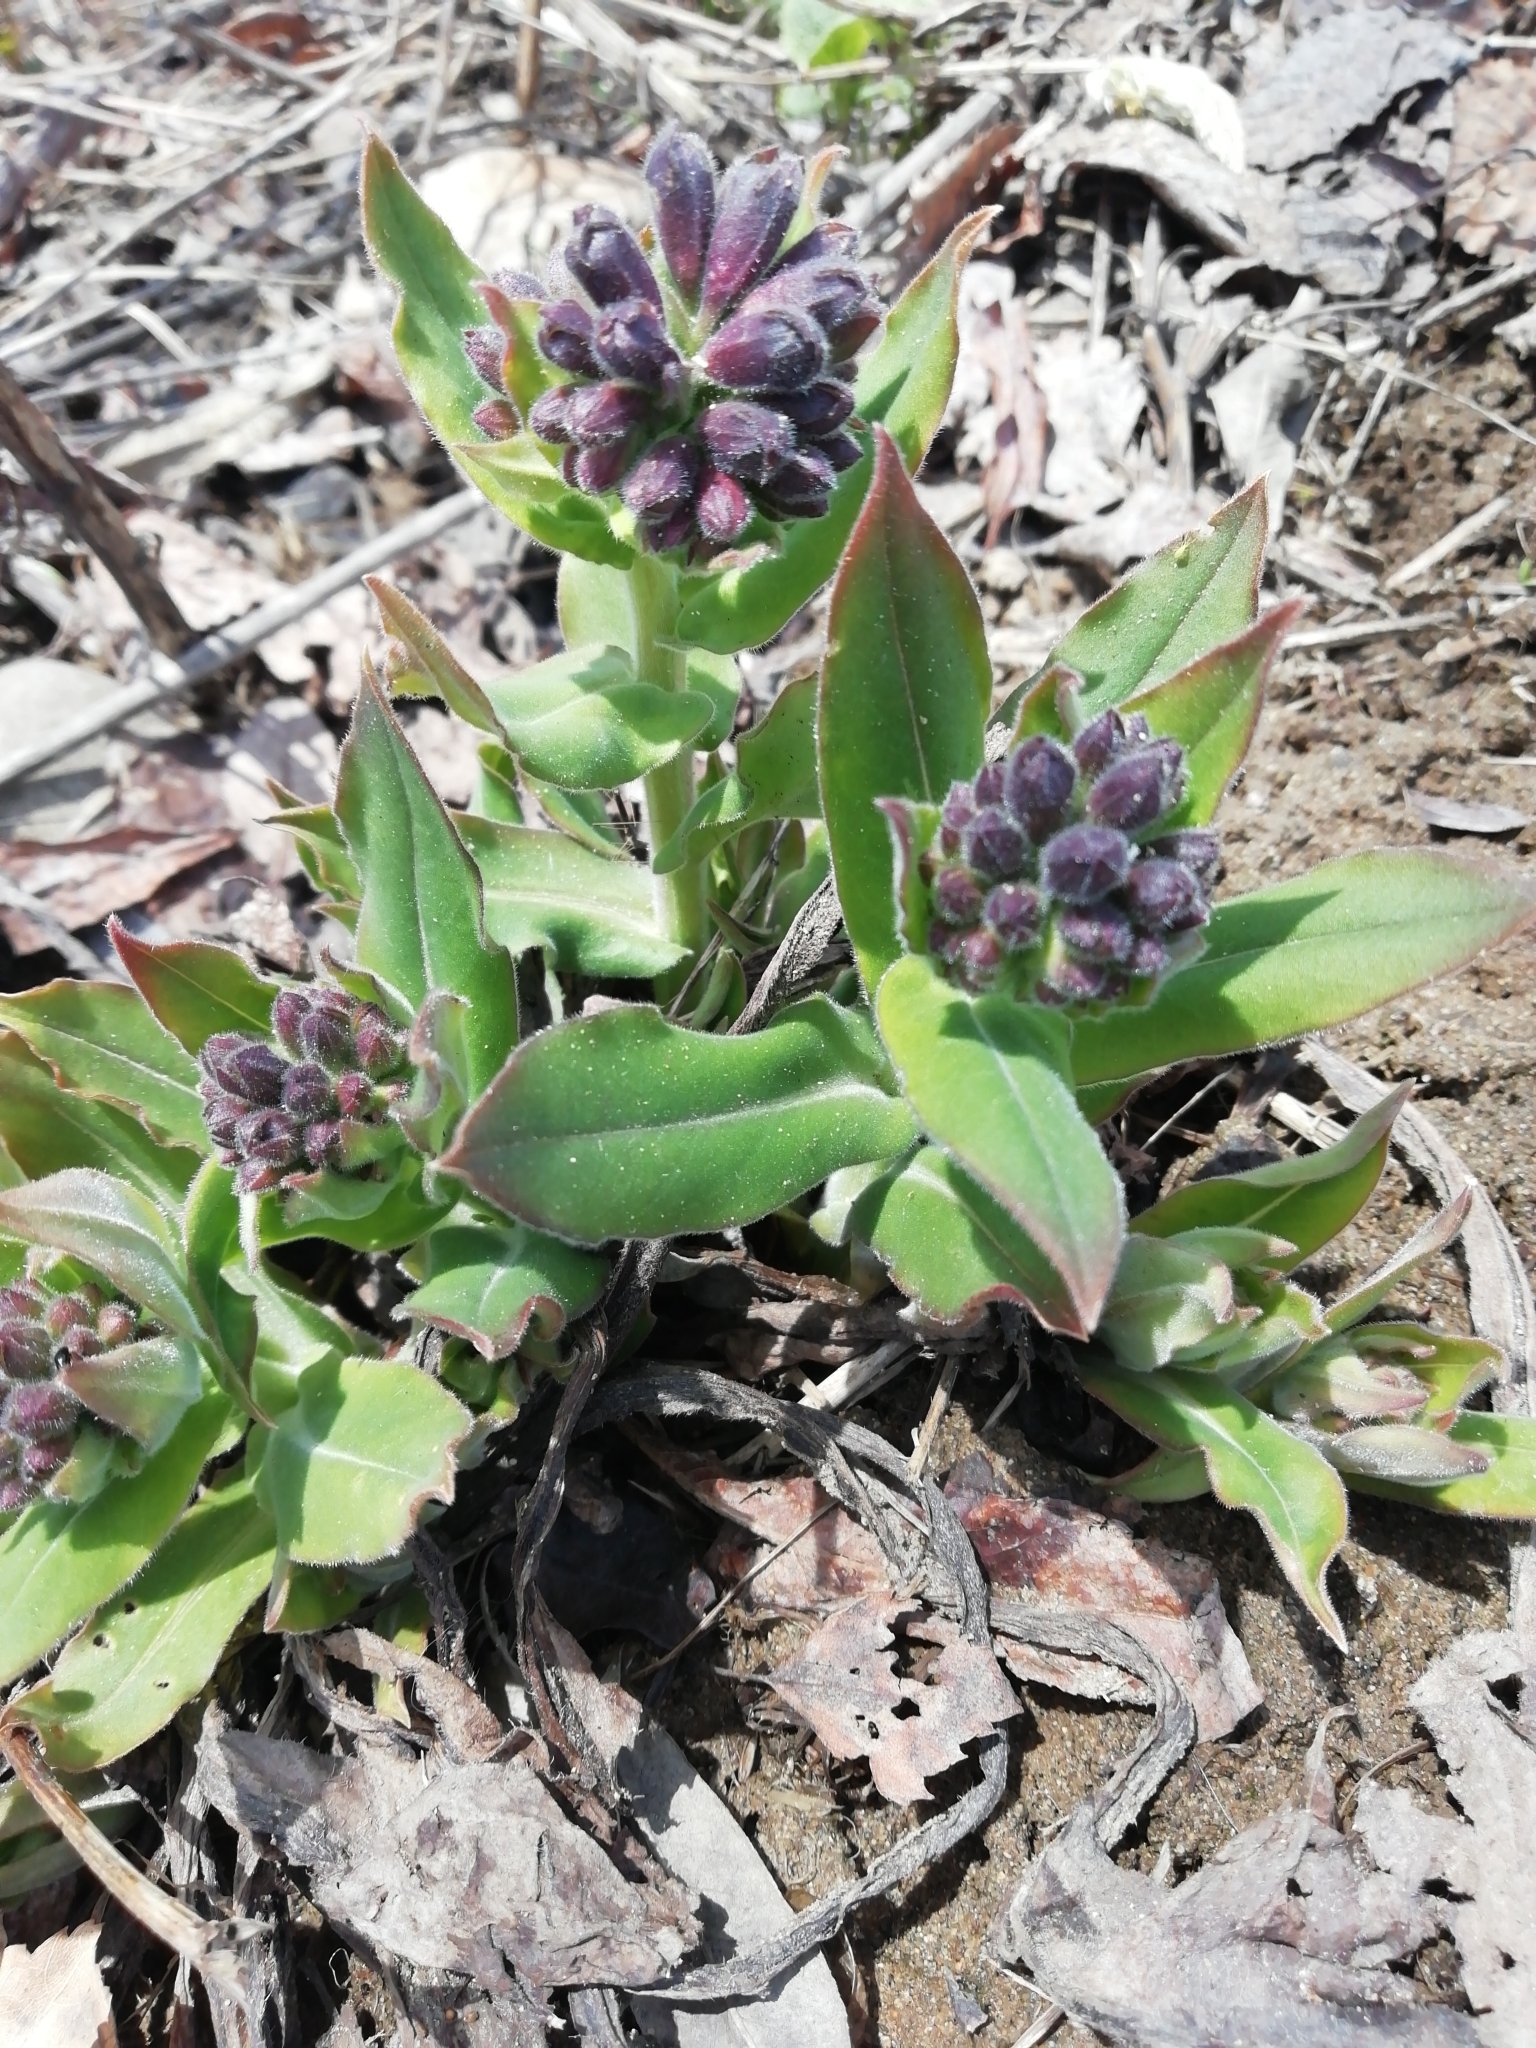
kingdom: Plantae
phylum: Tracheophyta
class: Magnoliopsida
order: Boraginales
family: Boraginaceae
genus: Pulmonaria
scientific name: Pulmonaria mollis
